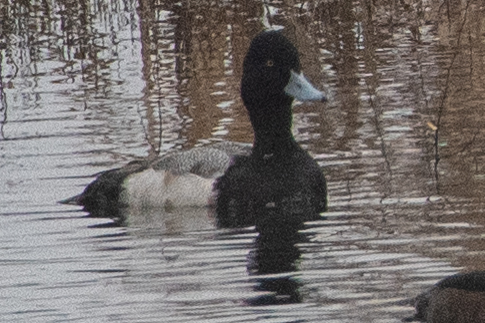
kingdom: Animalia
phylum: Chordata
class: Aves
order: Anseriformes
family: Anatidae
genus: Aythya
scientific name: Aythya affinis
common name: Lesser scaup
